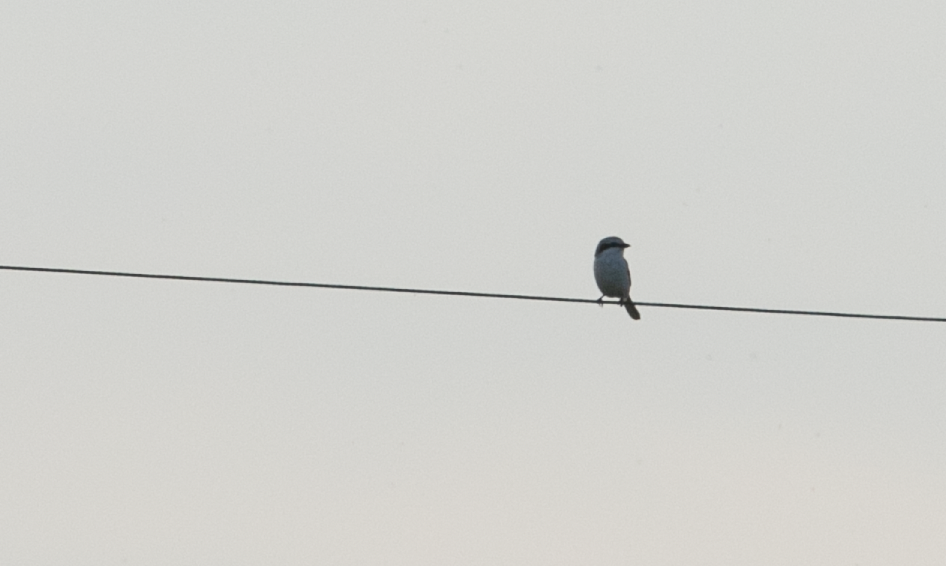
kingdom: Animalia
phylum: Chordata
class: Aves
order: Passeriformes
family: Laniidae
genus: Lanius
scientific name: Lanius excubitor
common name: Great grey shrike
